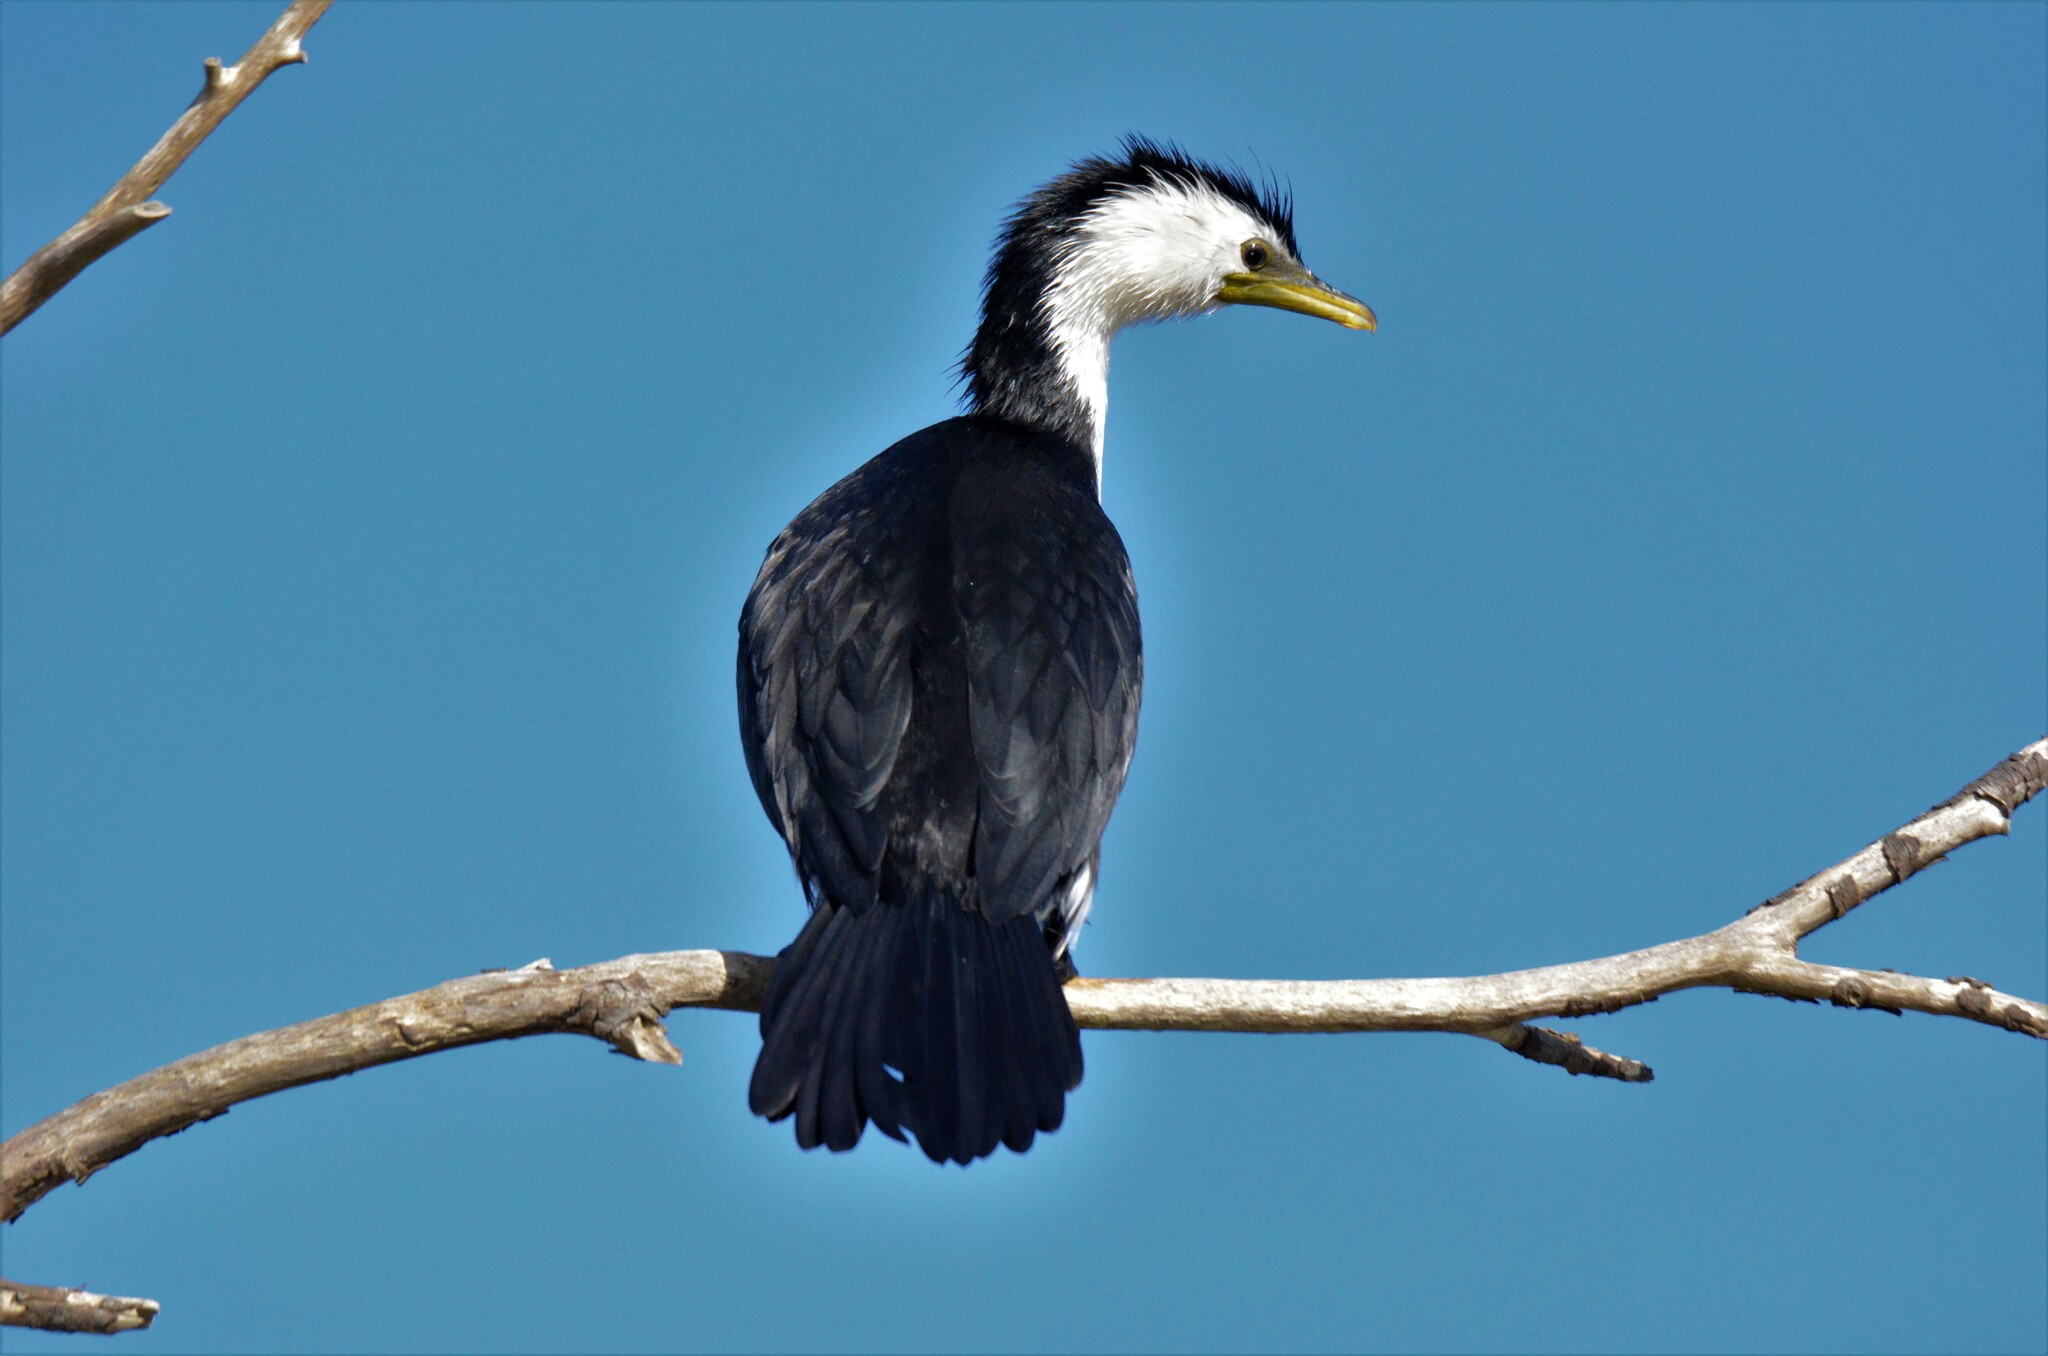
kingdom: Animalia
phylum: Chordata
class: Aves
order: Suliformes
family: Phalacrocoracidae
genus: Microcarbo
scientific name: Microcarbo melanoleucos
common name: Little pied cormorant
